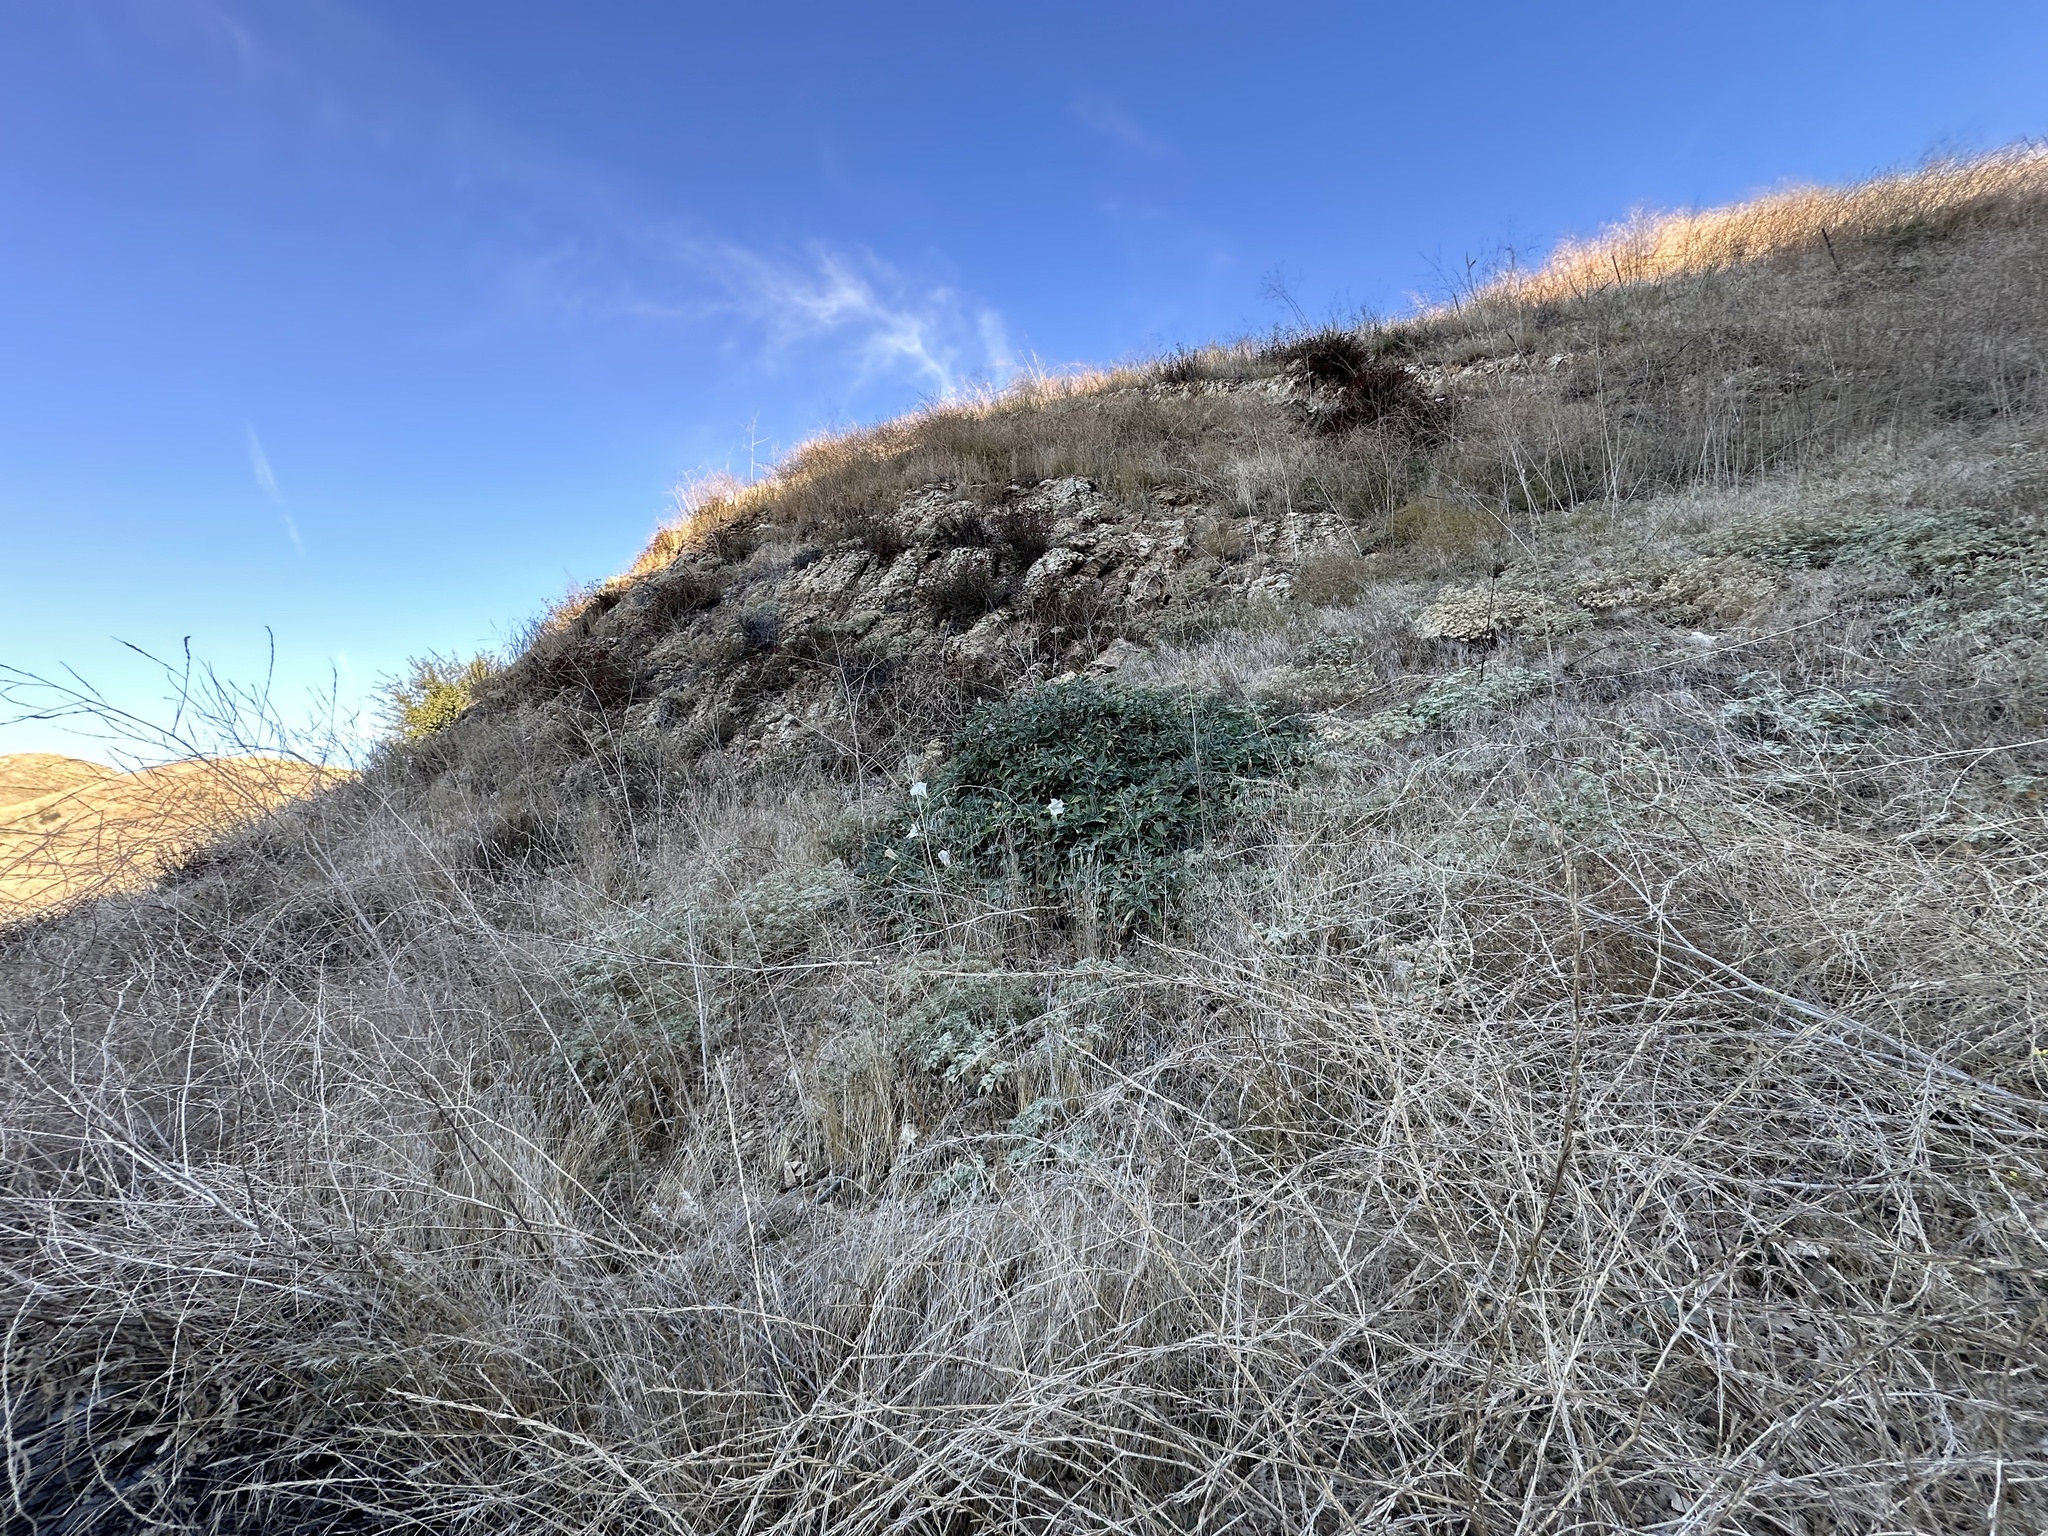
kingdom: Plantae
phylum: Tracheophyta
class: Magnoliopsida
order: Solanales
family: Solanaceae
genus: Datura
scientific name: Datura wrightii
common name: Sacred thorn-apple
